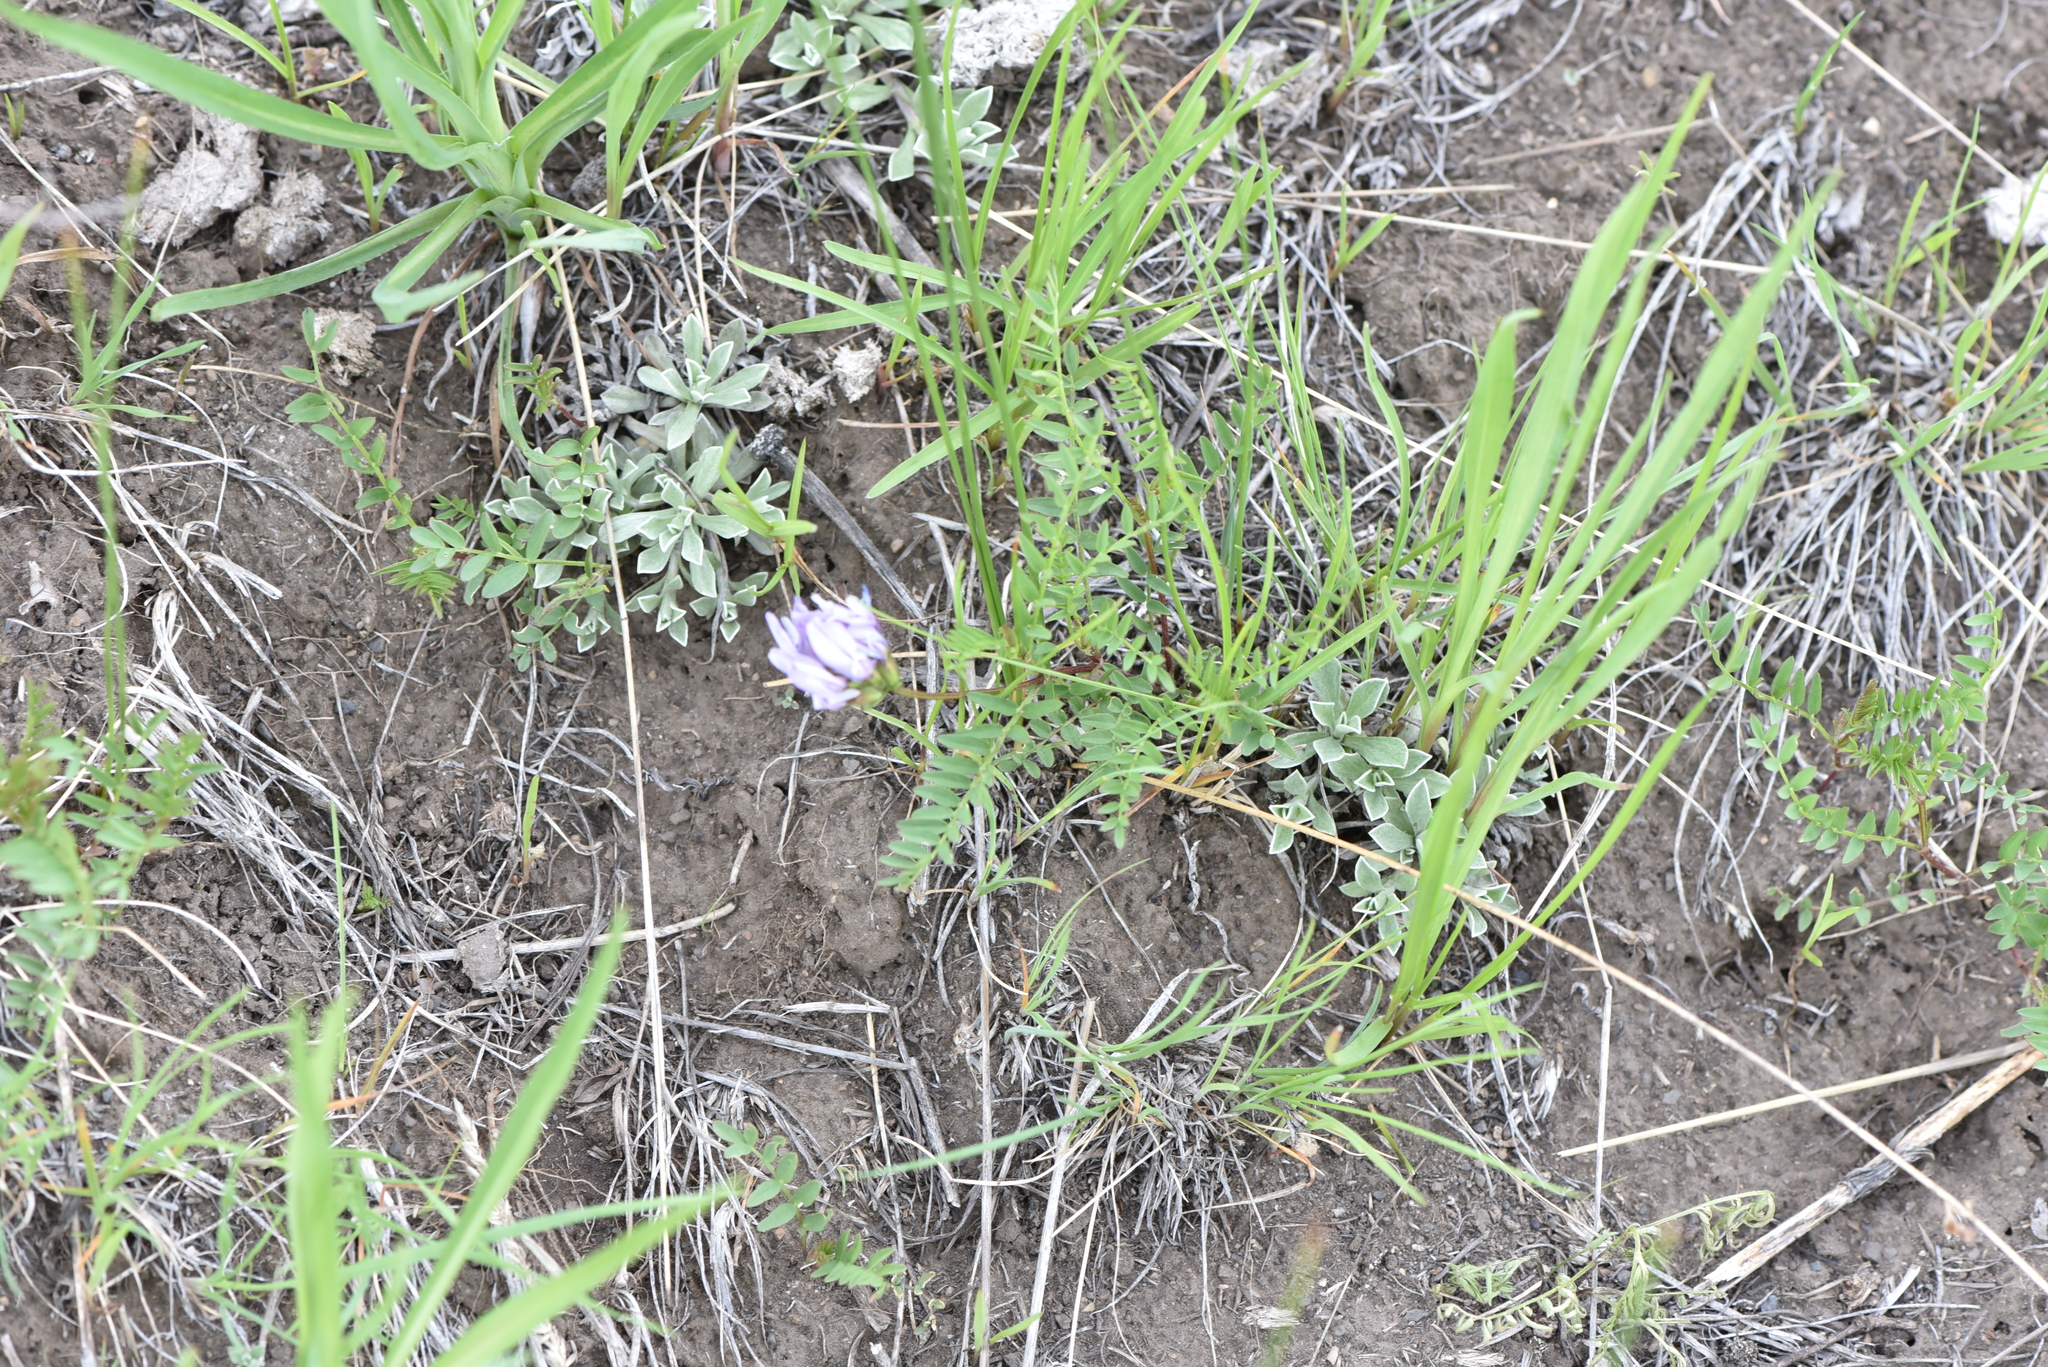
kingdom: Plantae
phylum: Tracheophyta
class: Magnoliopsida
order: Fabales
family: Fabaceae
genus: Astragalus
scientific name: Astragalus agrestis
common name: Field milk-vetch
